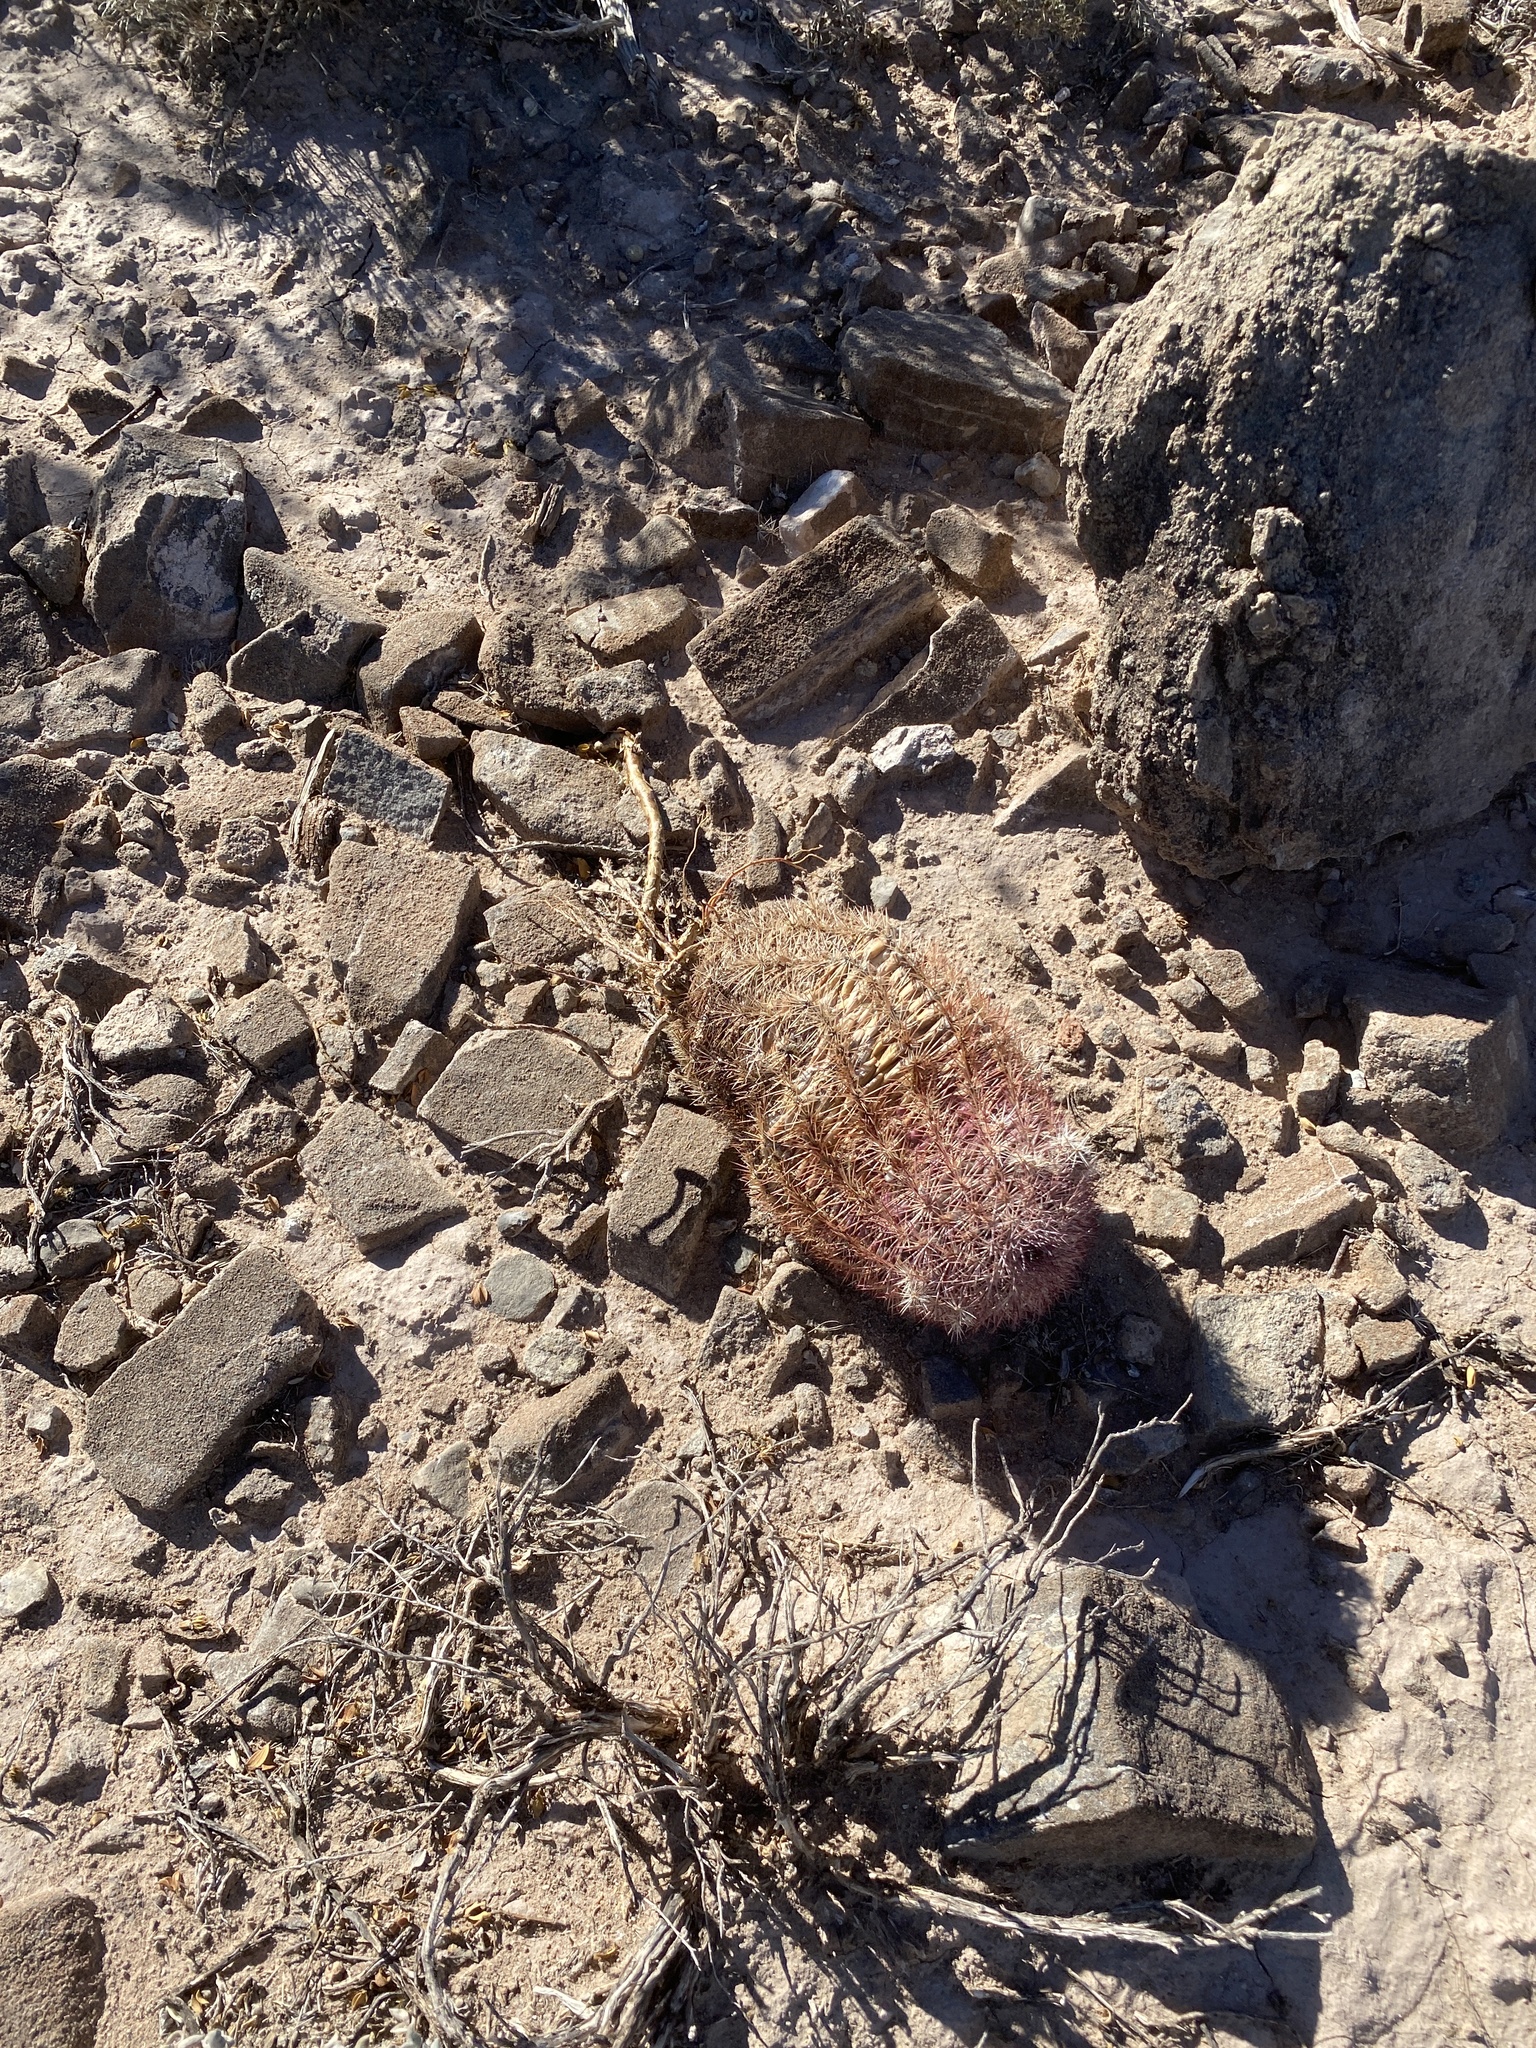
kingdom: Plantae
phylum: Tracheophyta
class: Magnoliopsida
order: Caryophyllales
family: Cactaceae
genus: Echinocereus
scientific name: Echinocereus dasyacanthus
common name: Spiny hedgehog cactus
